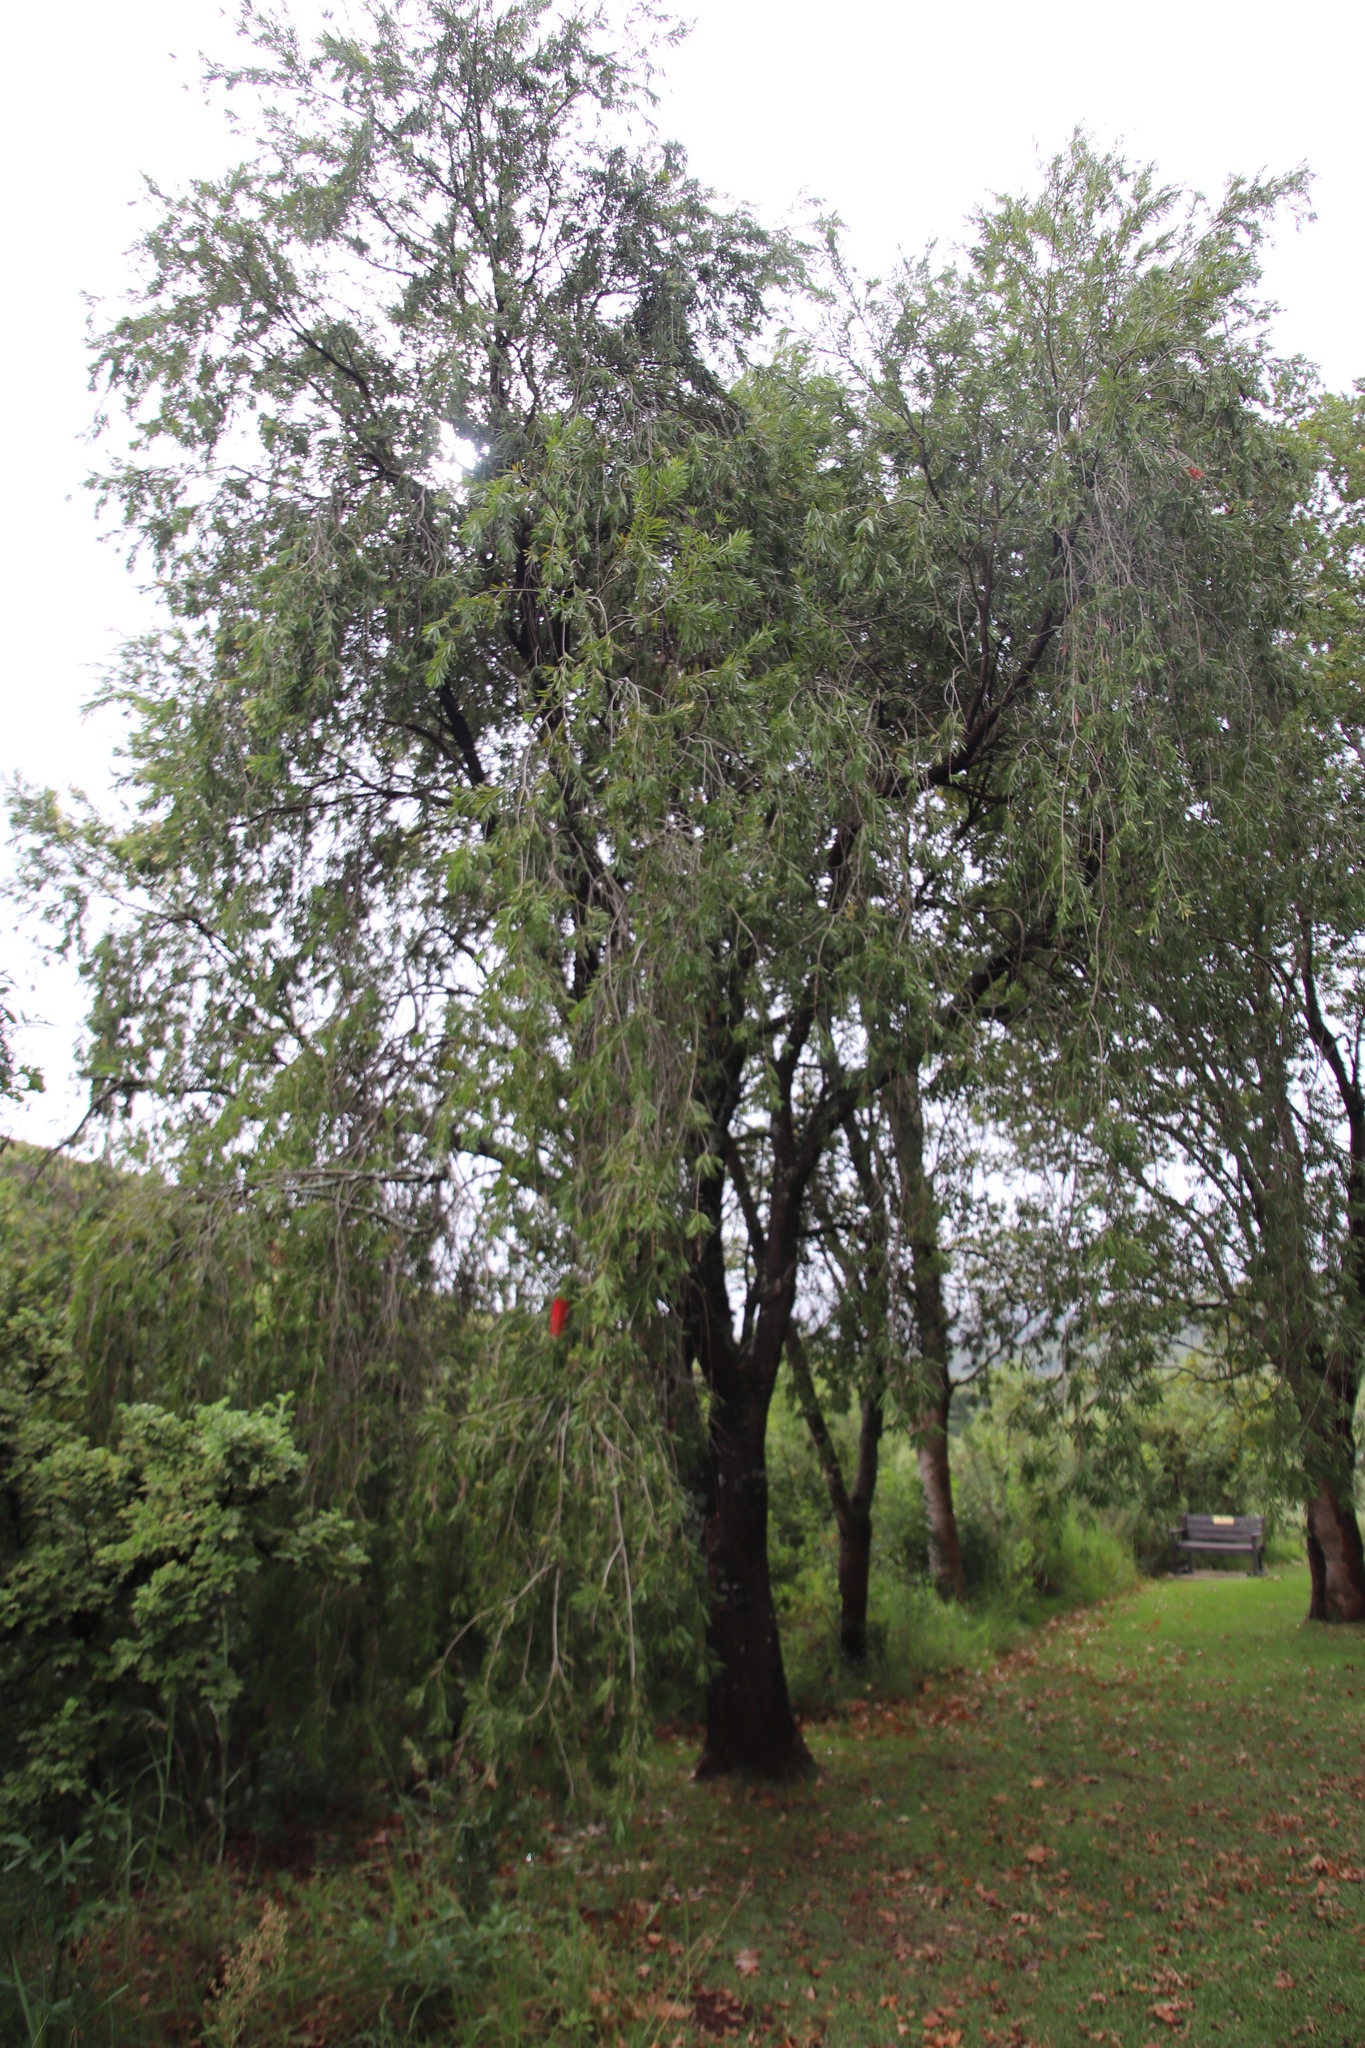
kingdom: Plantae
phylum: Tracheophyta
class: Magnoliopsida
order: Myrtales
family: Myrtaceae
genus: Callistemon
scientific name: Callistemon viminalis
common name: Drooping bottlebrush
